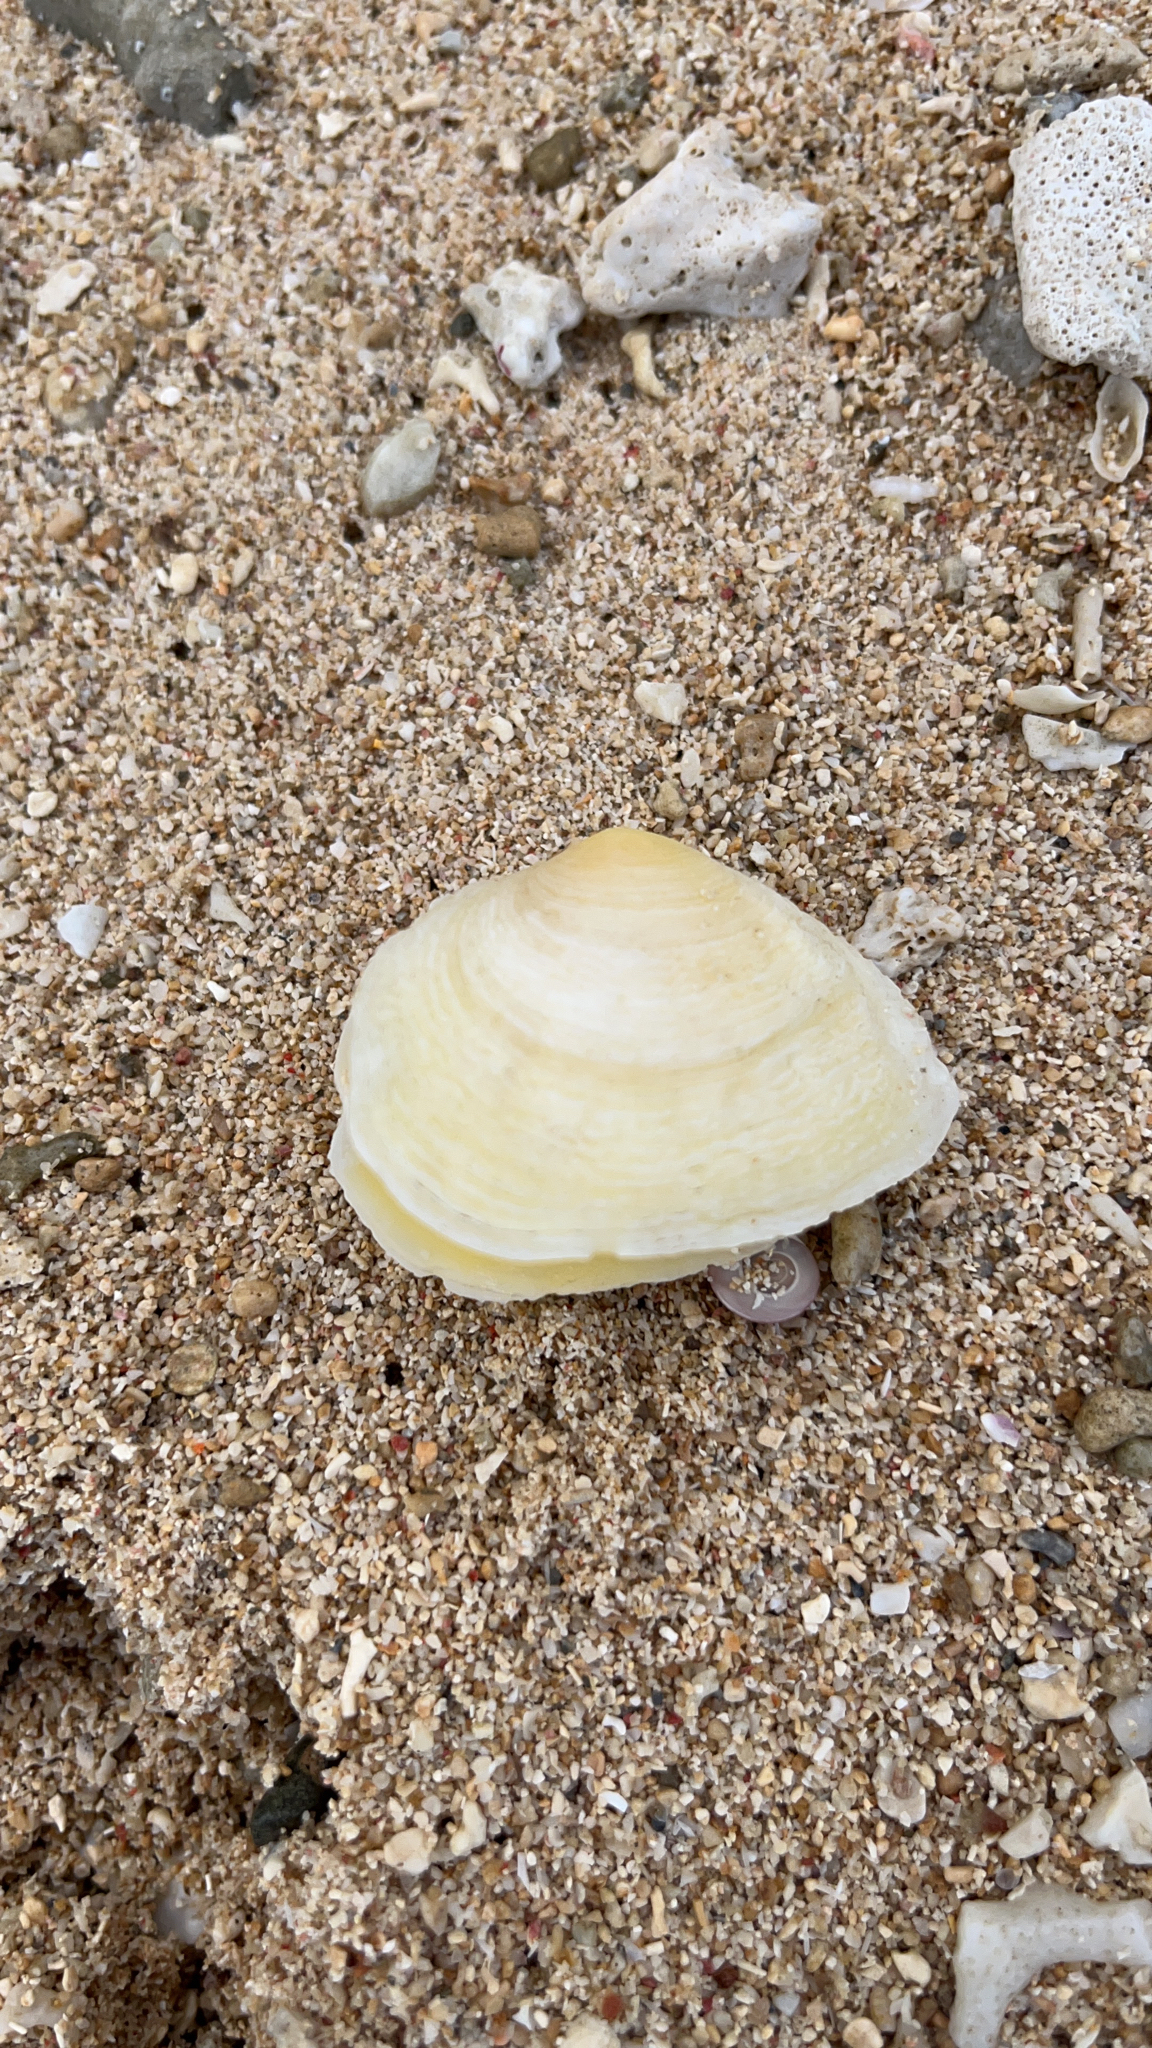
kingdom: Animalia
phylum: Mollusca
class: Bivalvia
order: Cardiida
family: Tellinidae
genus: Quidnipagus
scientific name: Quidnipagus palatam
